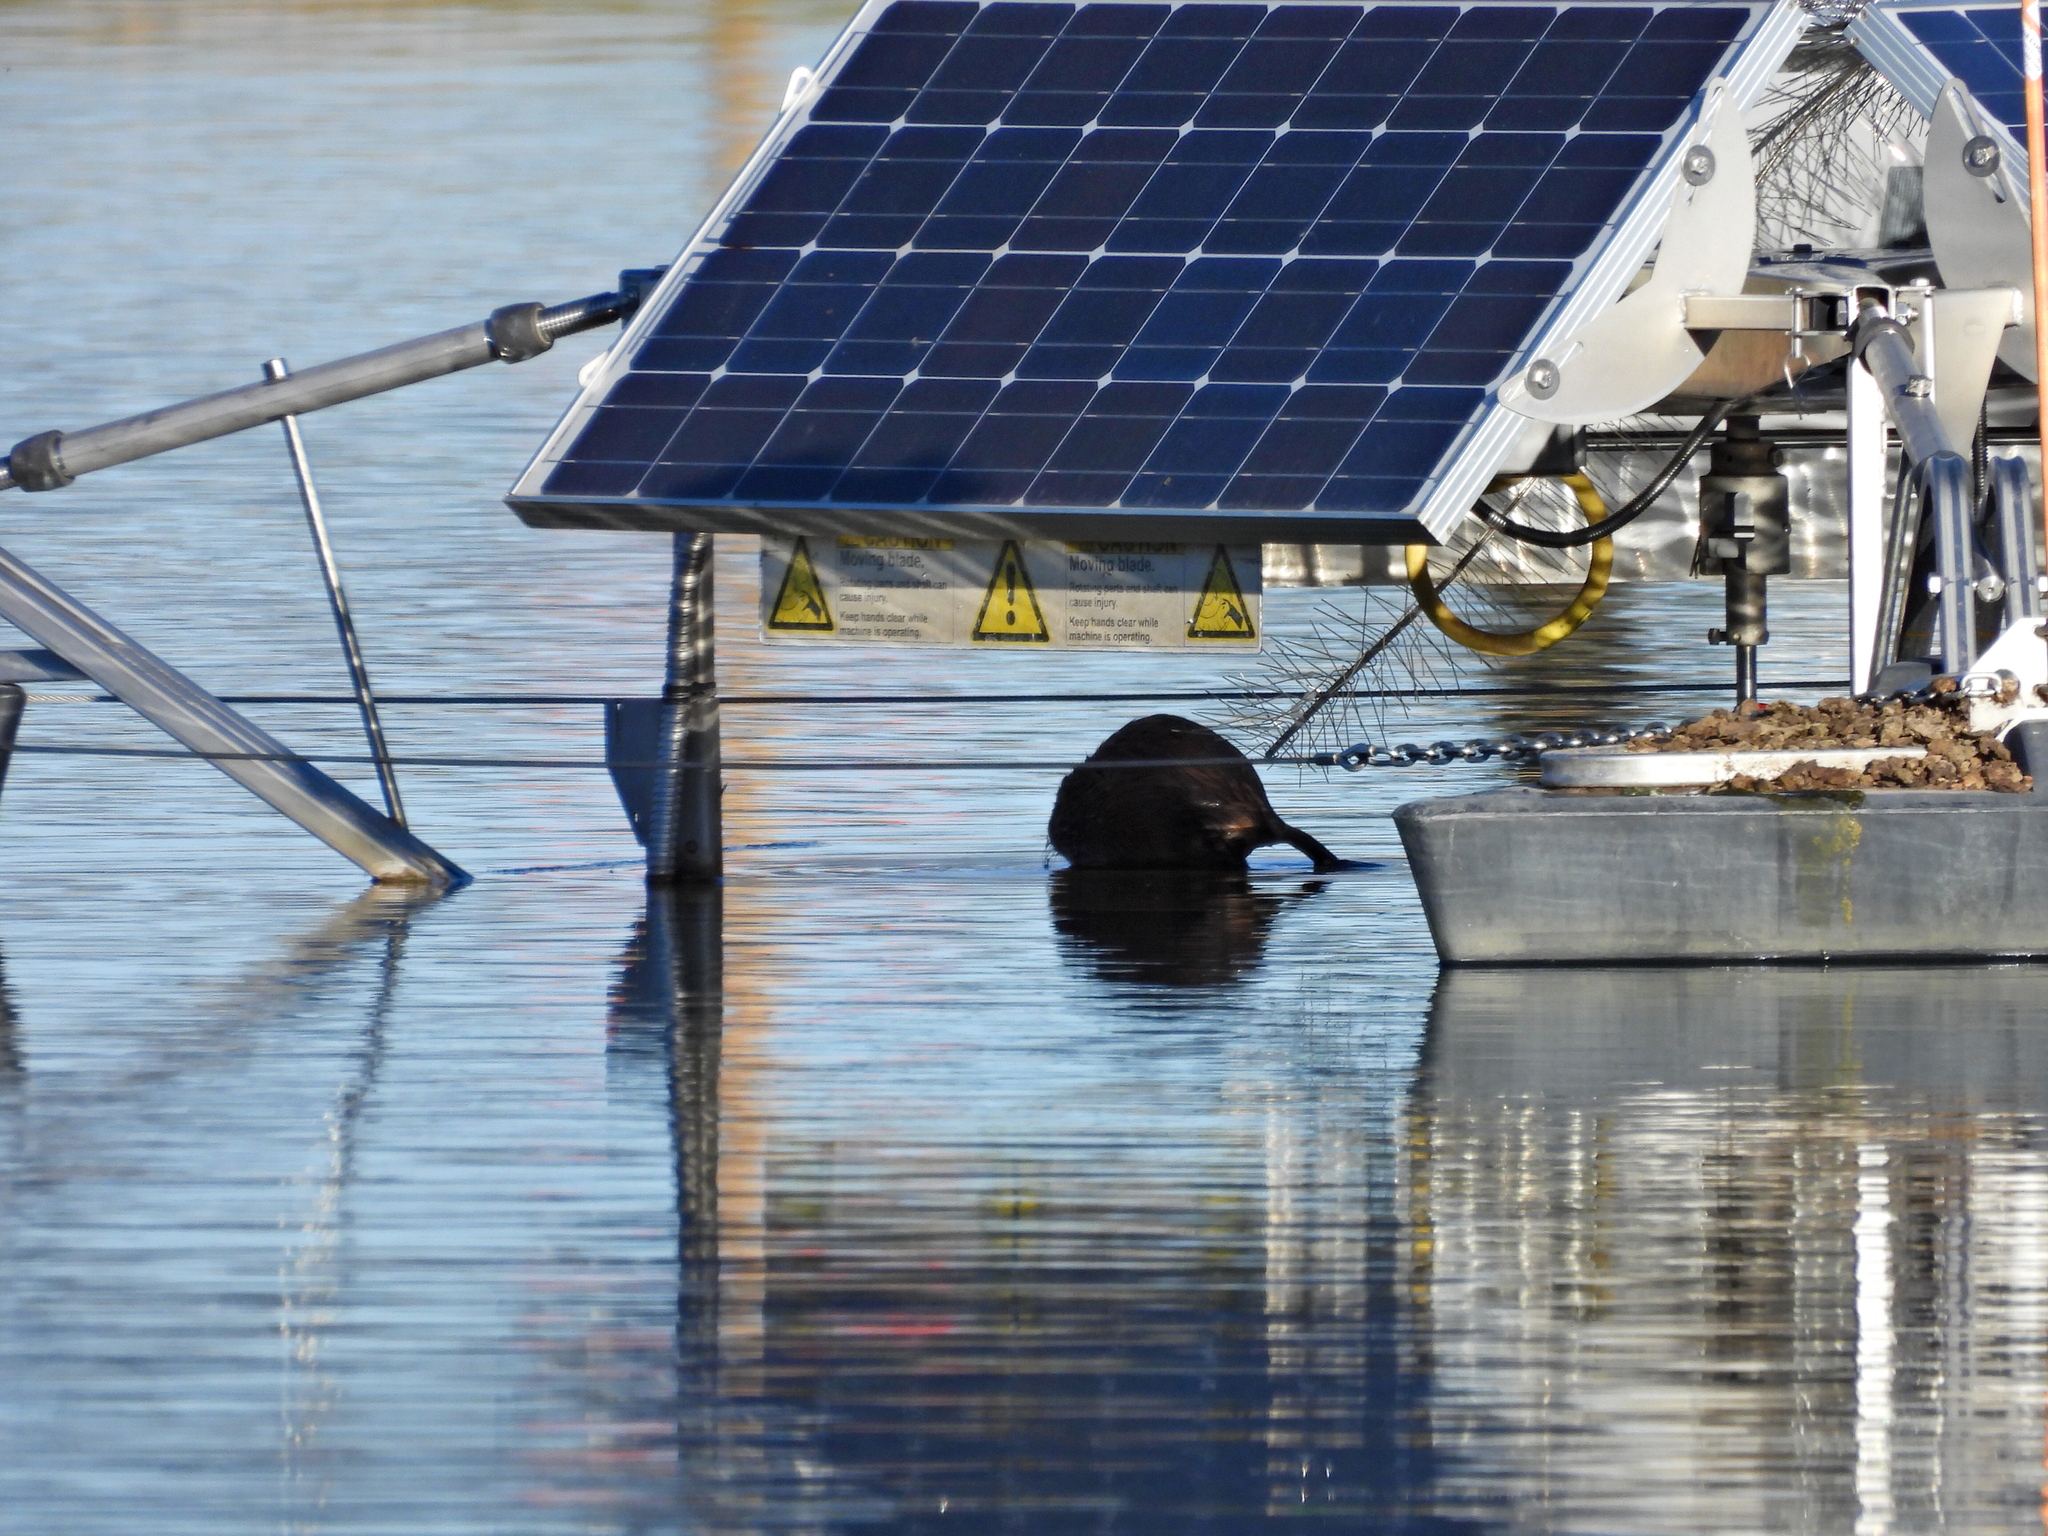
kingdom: Animalia
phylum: Chordata
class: Mammalia
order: Rodentia
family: Cricetidae
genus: Ondatra
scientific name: Ondatra zibethicus
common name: Muskrat
